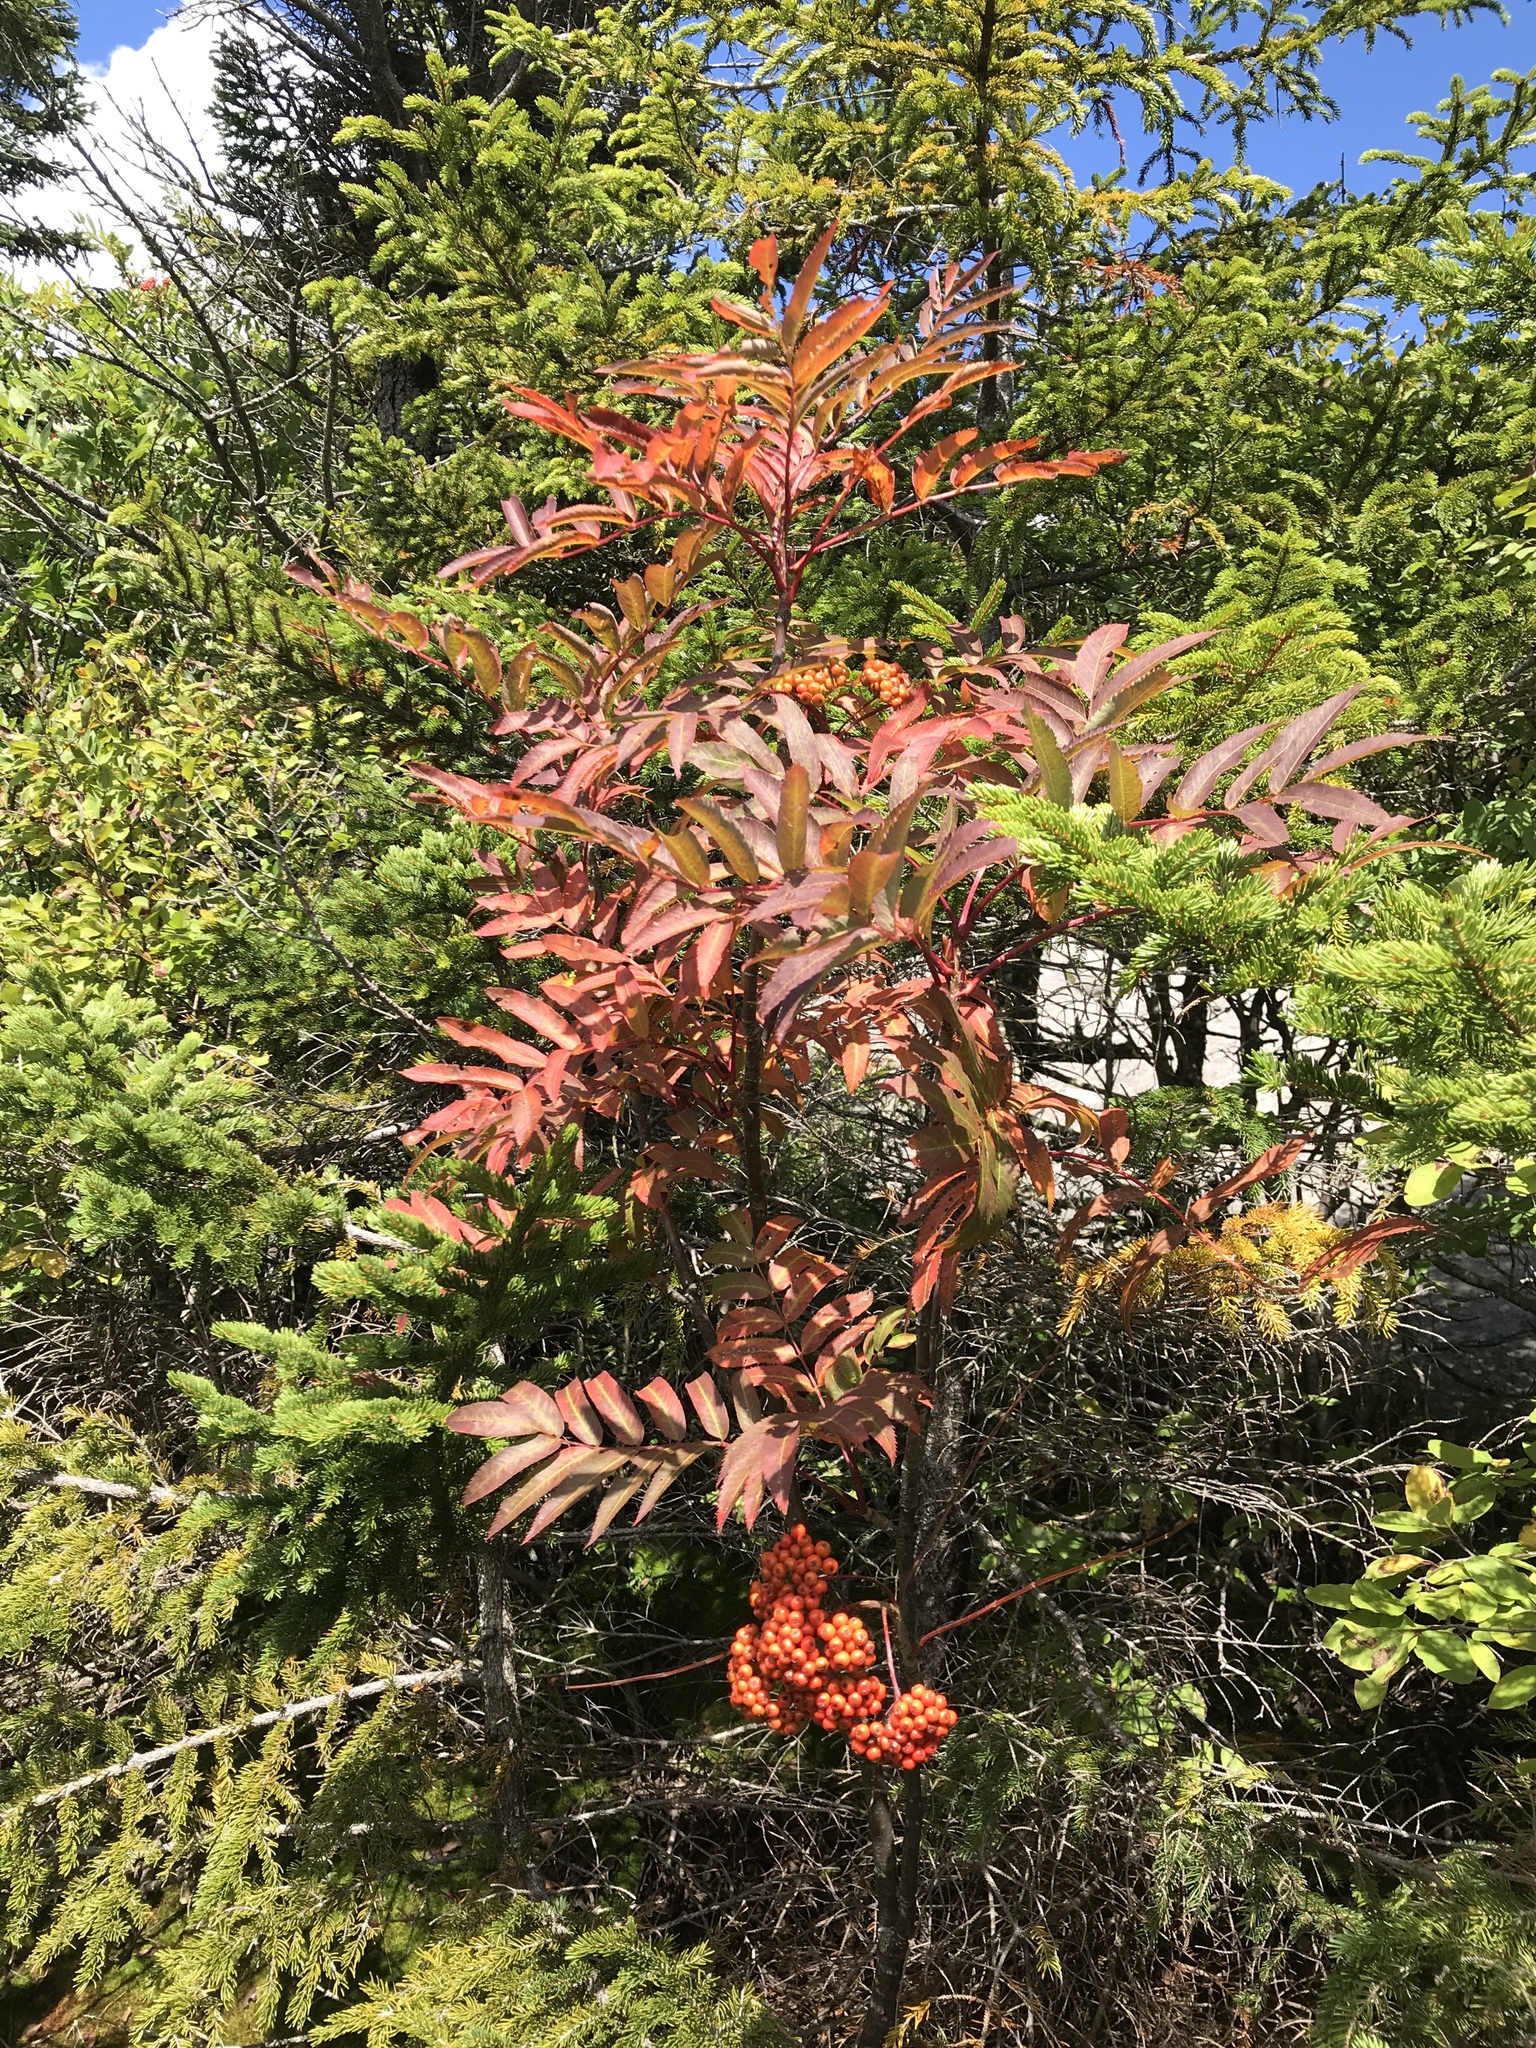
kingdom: Plantae
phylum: Tracheophyta
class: Magnoliopsida
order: Rosales
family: Rosaceae
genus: Sorbus
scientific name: Sorbus americana
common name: American mountain-ash
